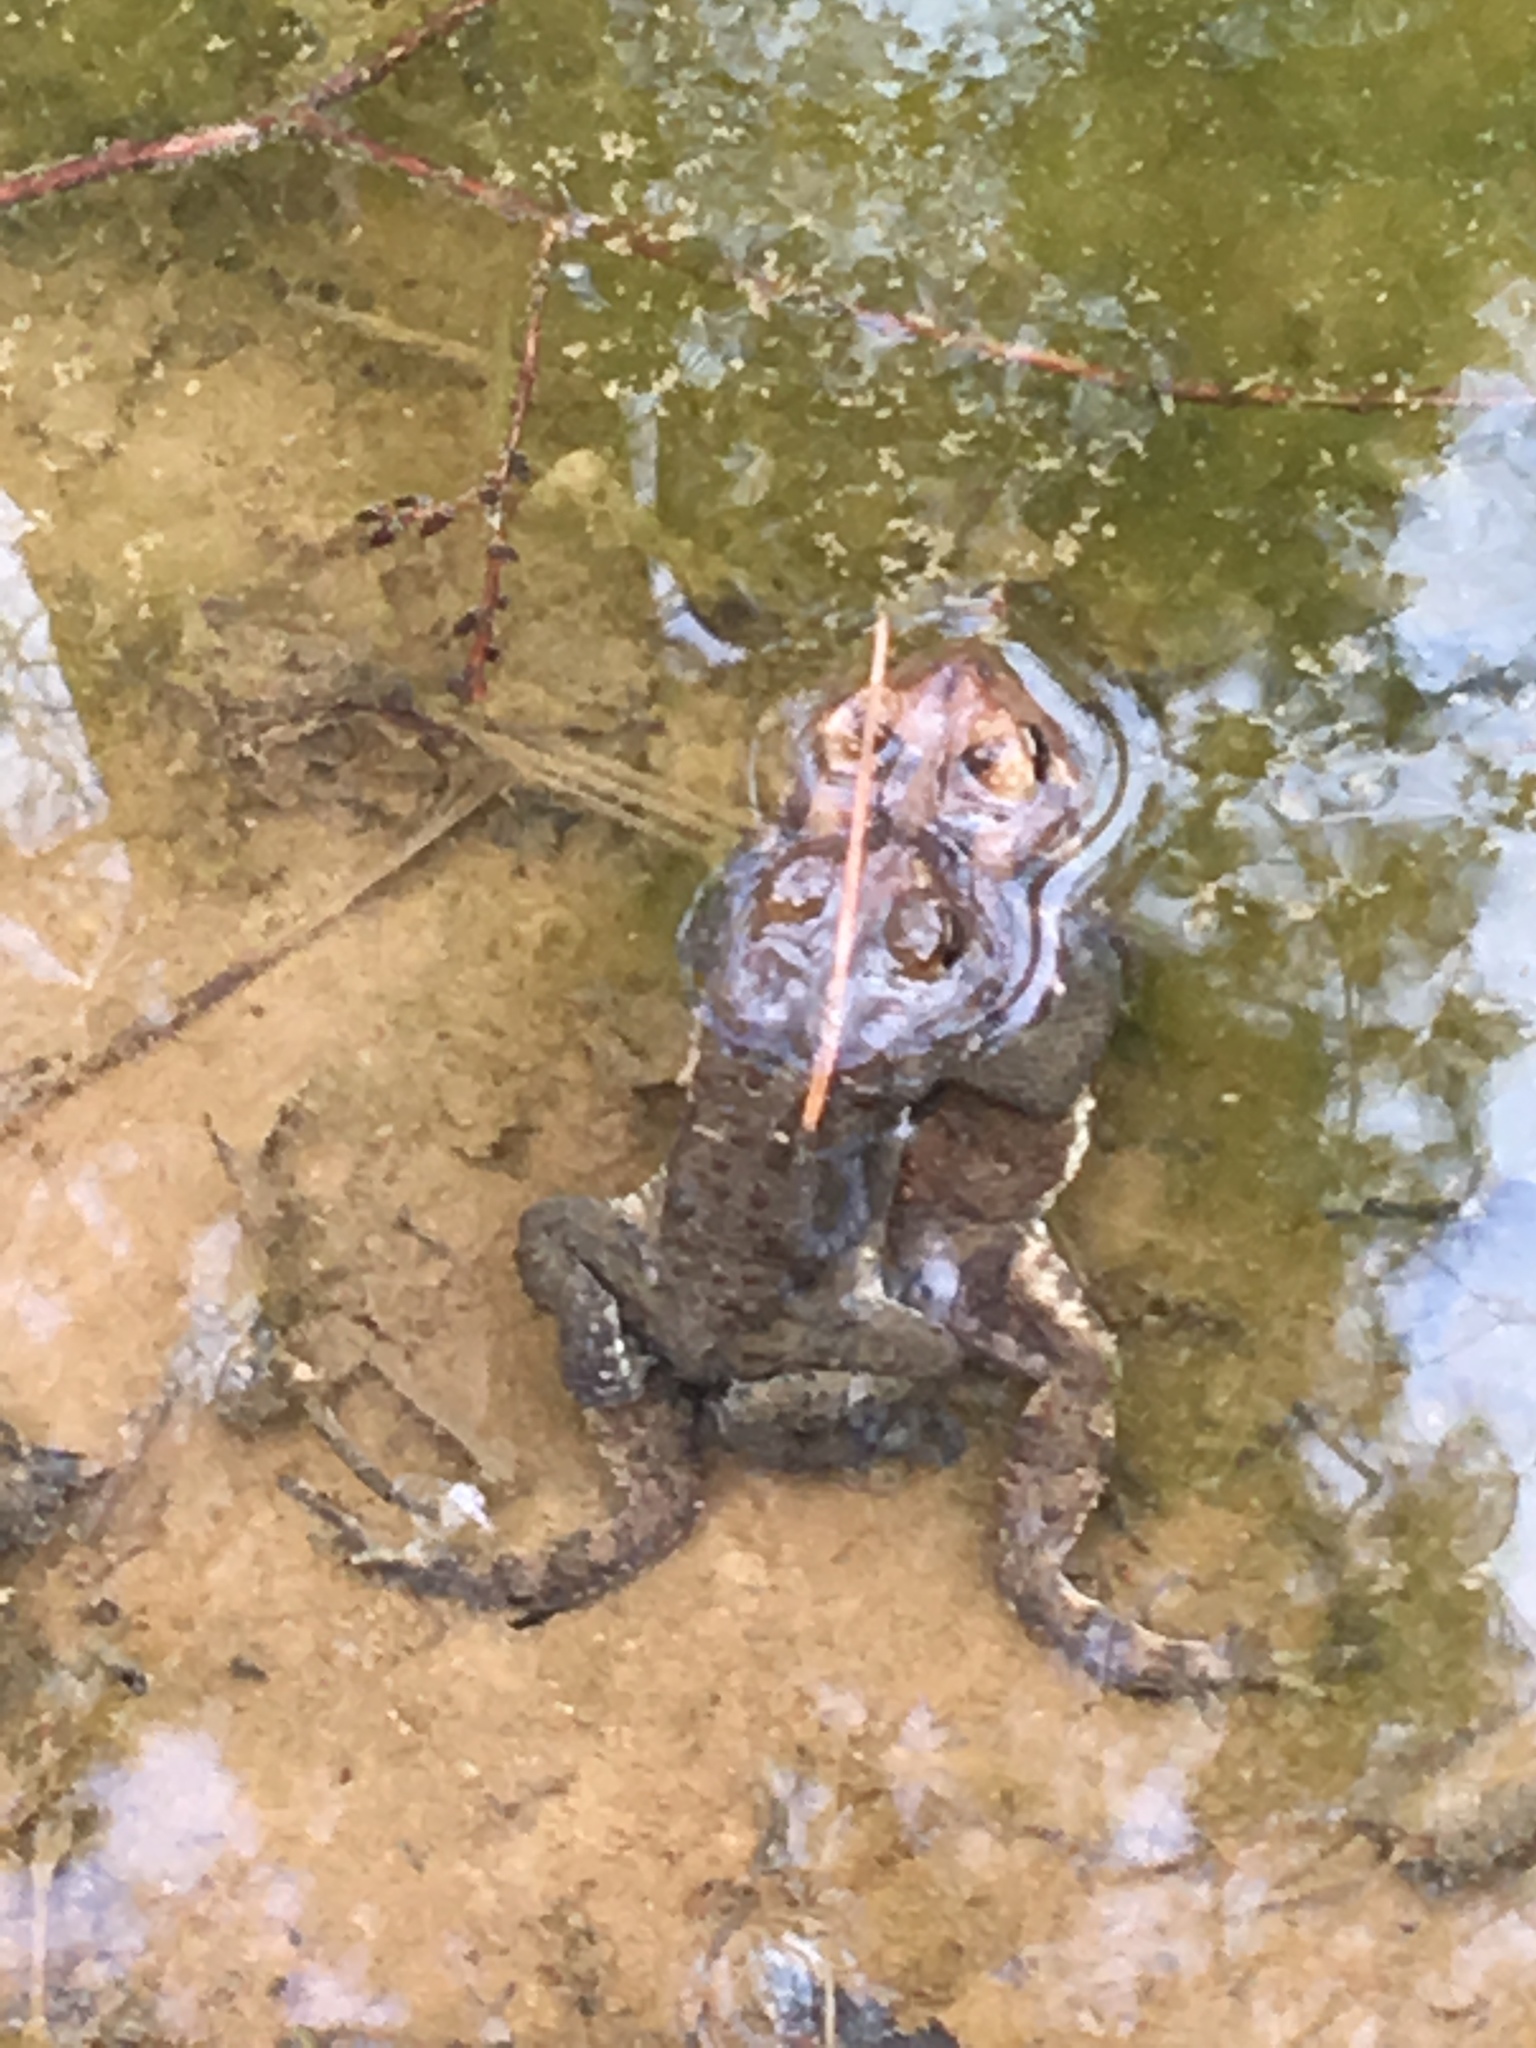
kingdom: Animalia
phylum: Chordata
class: Amphibia
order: Anura
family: Bufonidae
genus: Anaxyrus
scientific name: Anaxyrus americanus
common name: American toad
